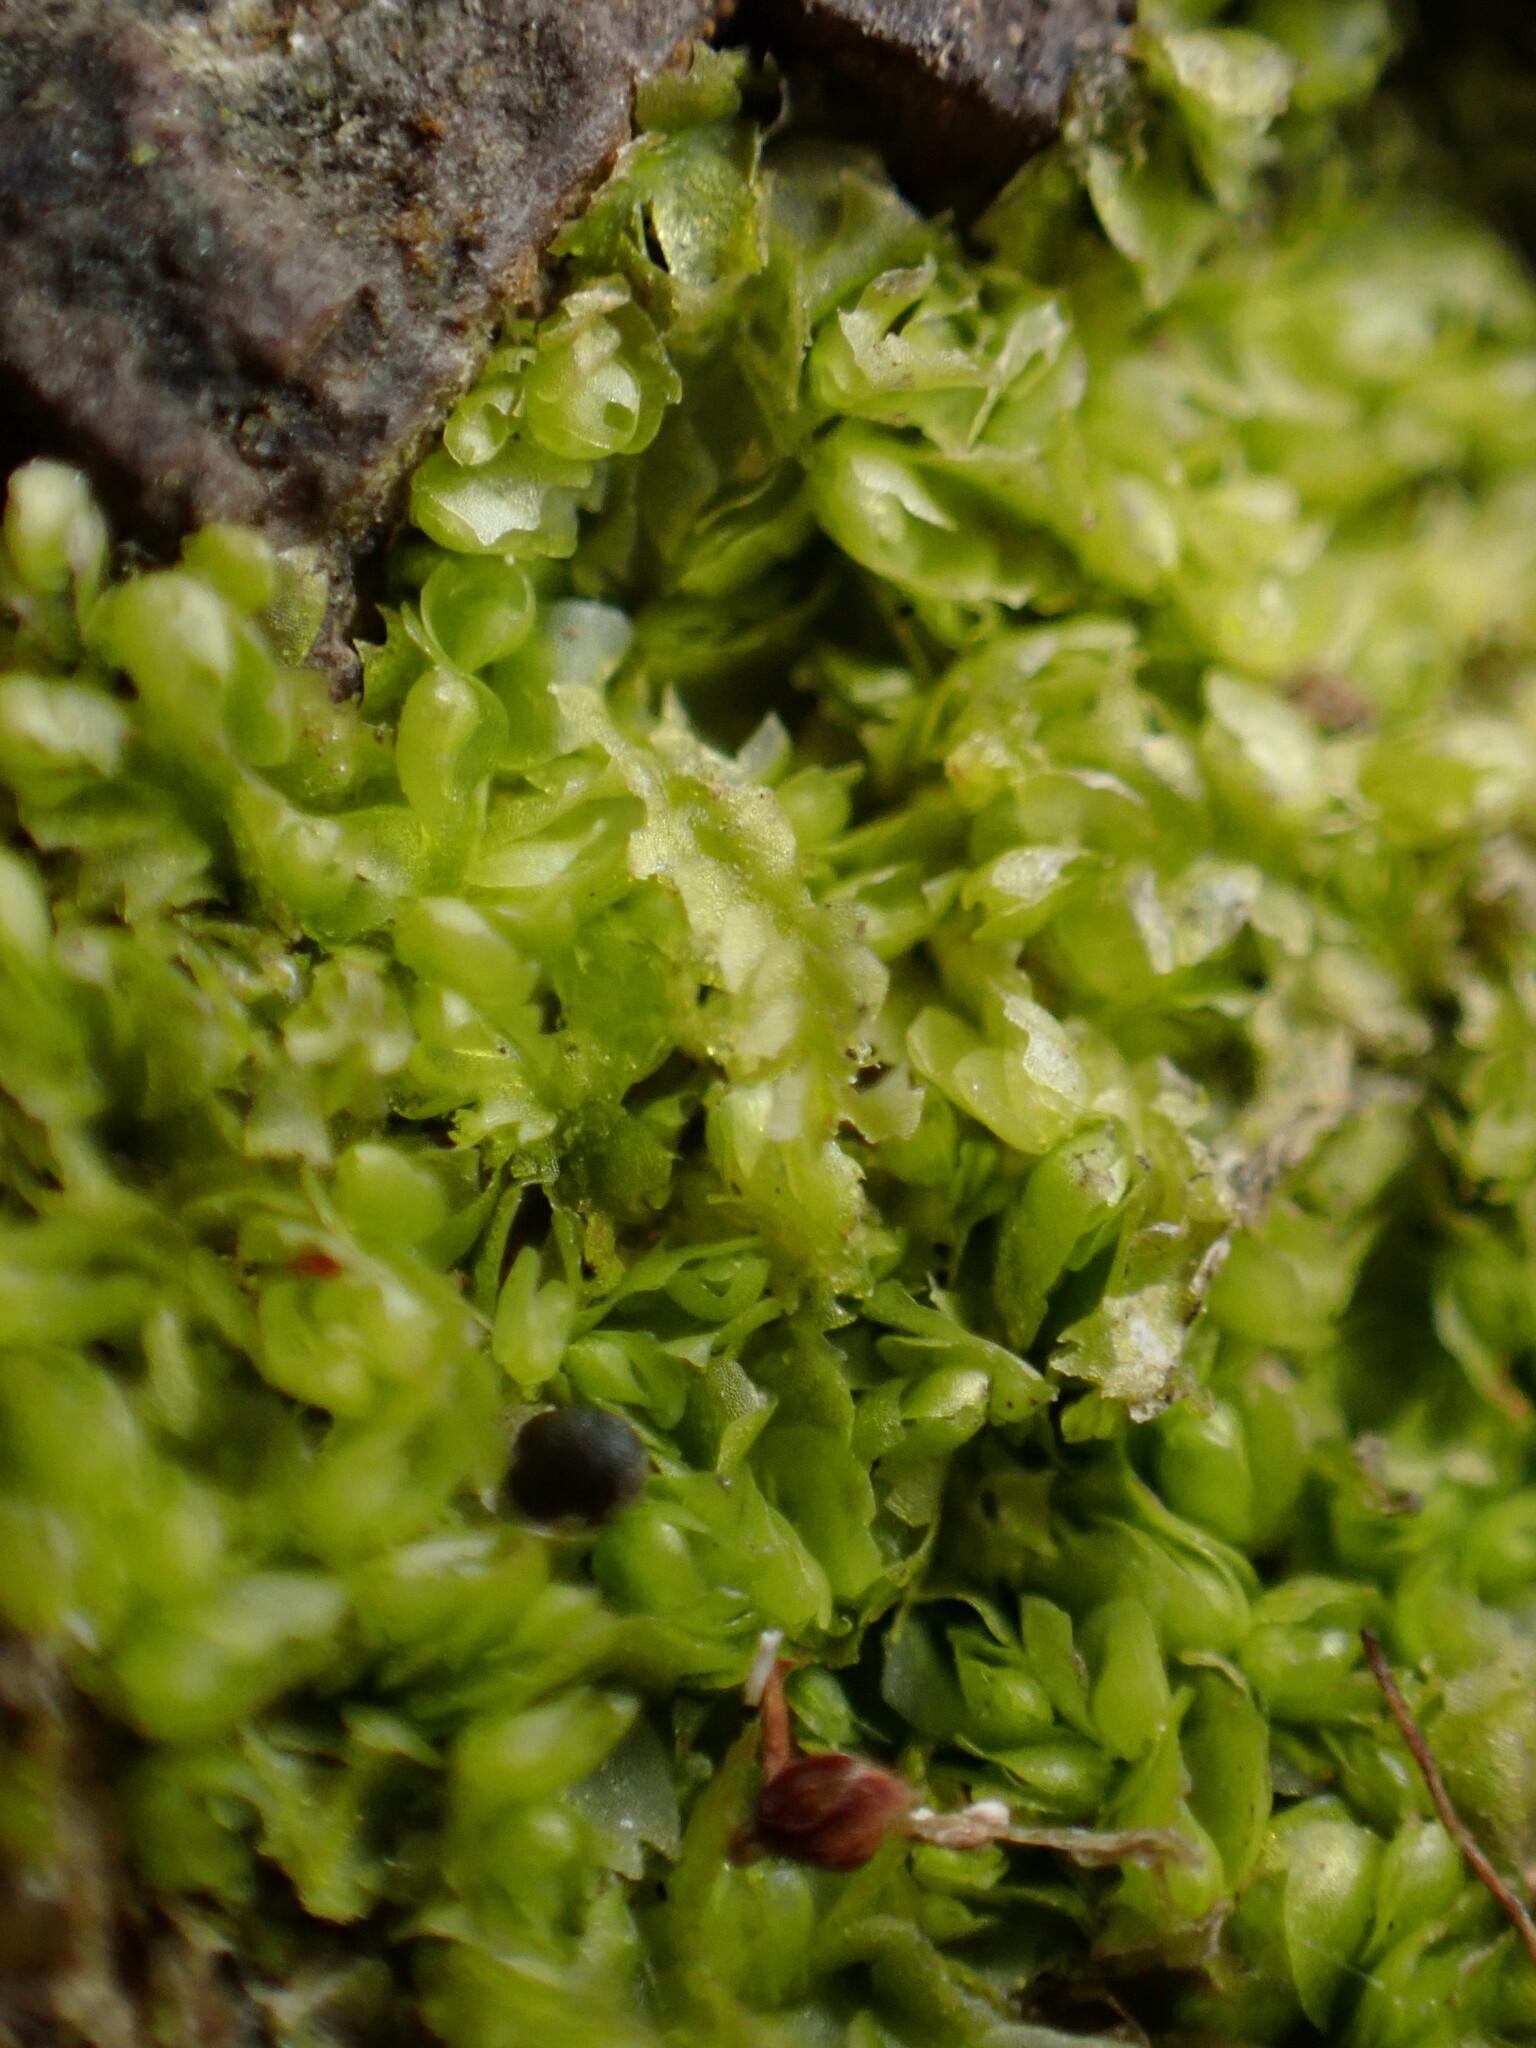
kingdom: Plantae
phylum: Marchantiophyta
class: Jungermanniopsida
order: Jungermanniales
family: Lophocoleaceae
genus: Lophocolea
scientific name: Lophocolea heterophylla
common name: Variable-leaved crestwort
